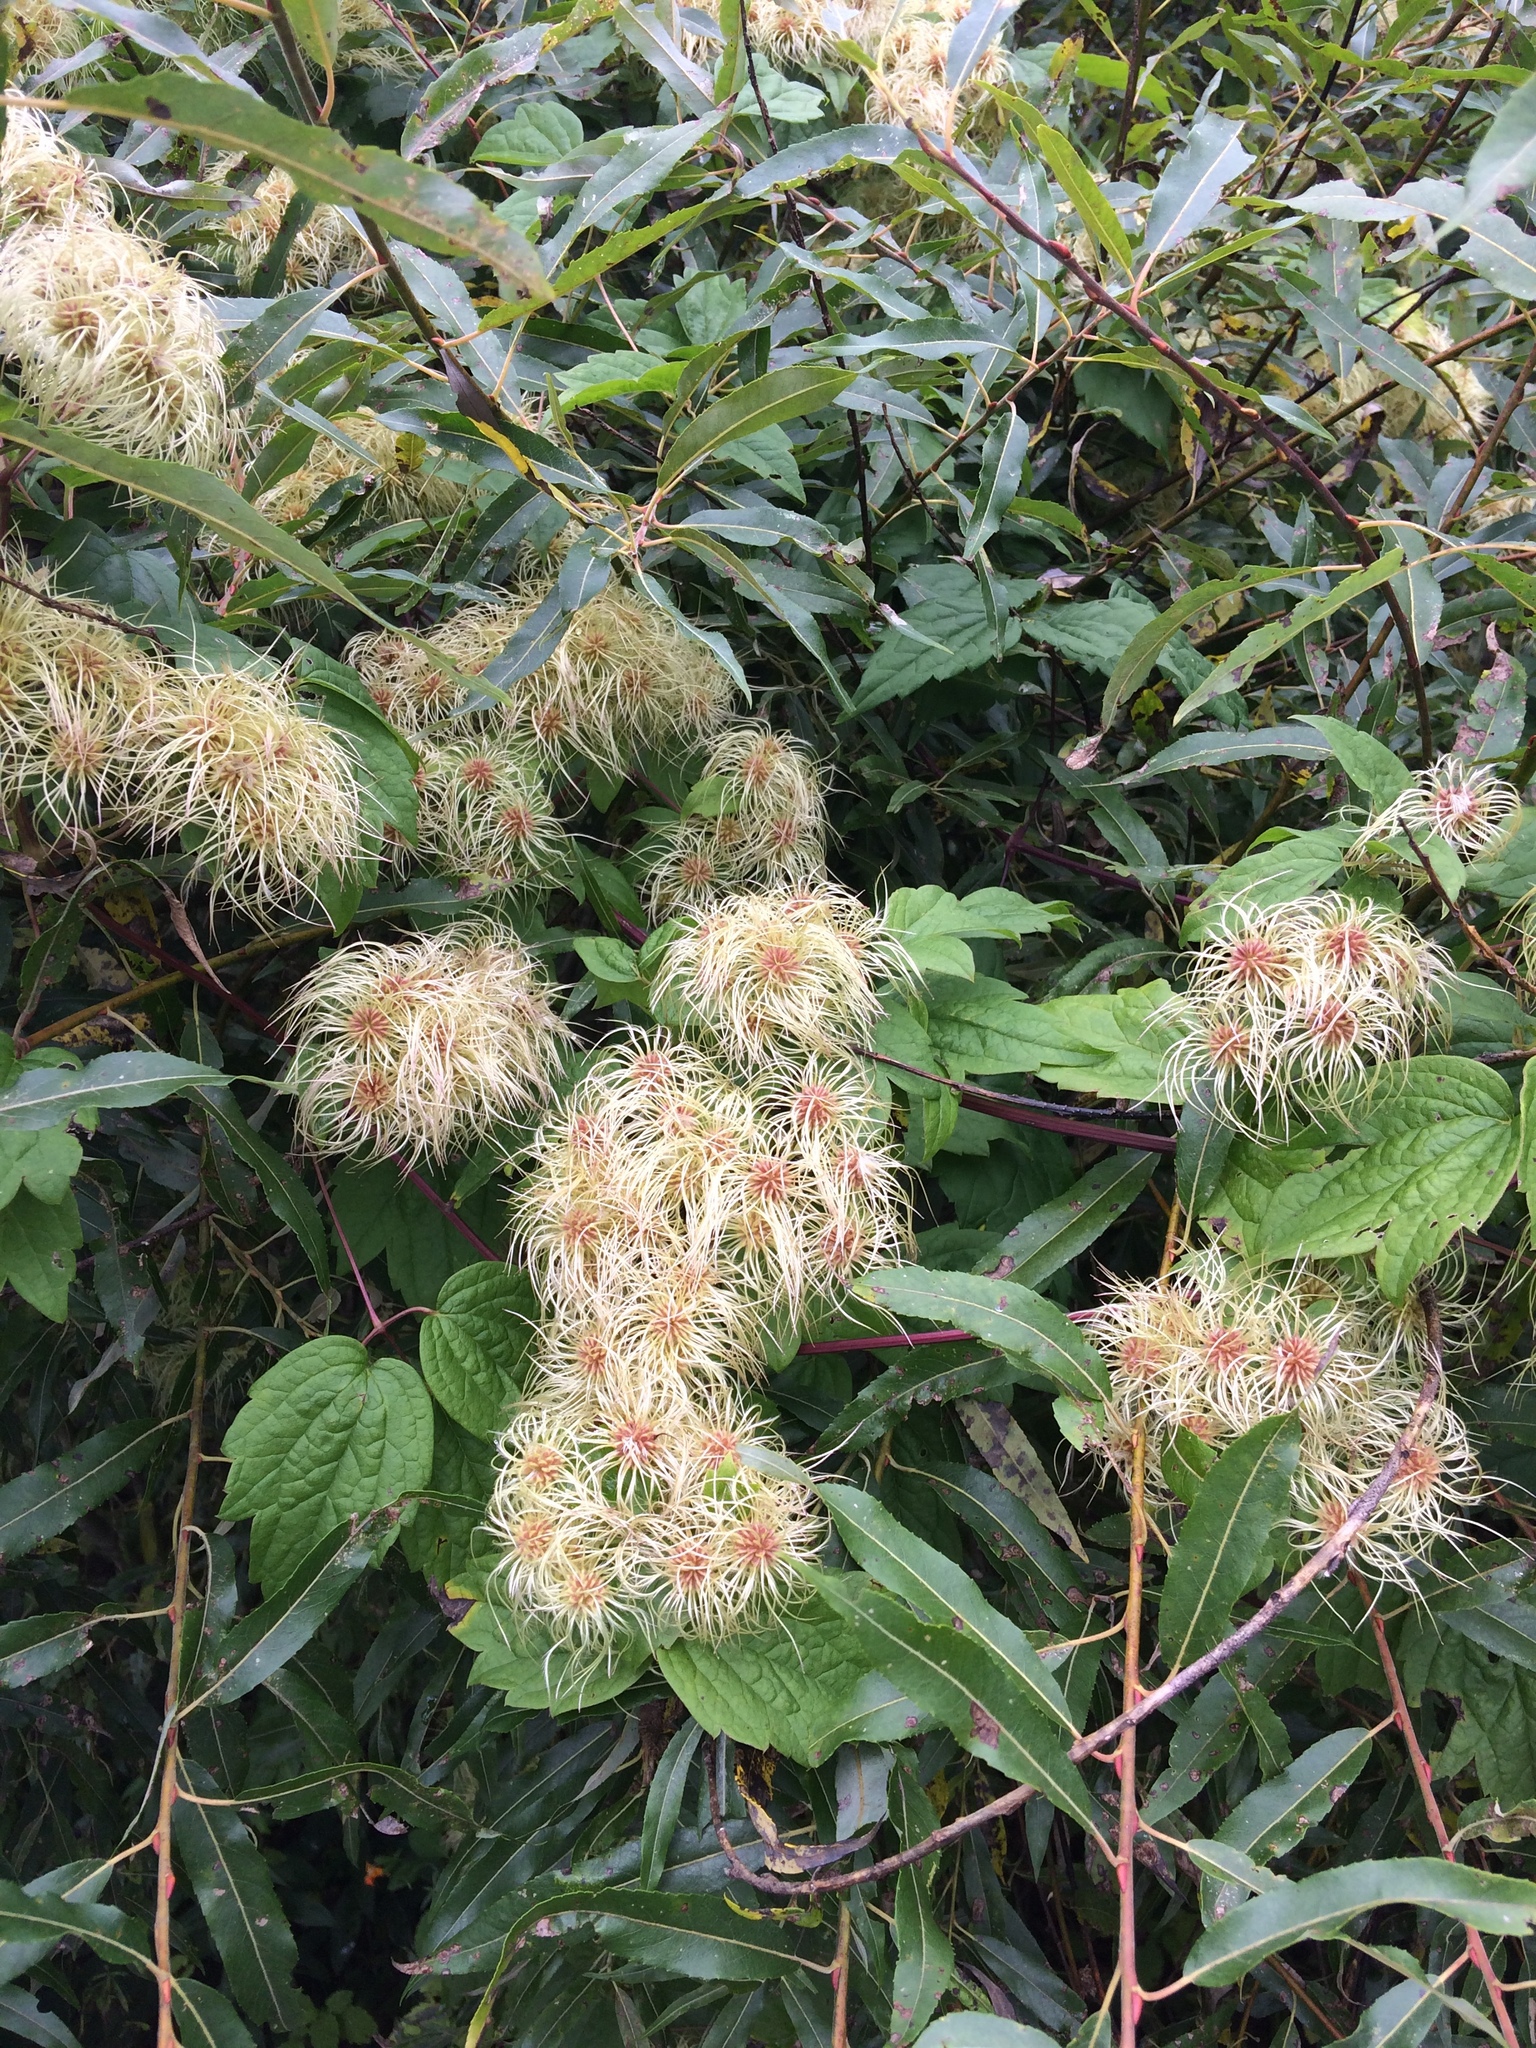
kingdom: Plantae
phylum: Tracheophyta
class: Magnoliopsida
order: Ranunculales
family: Ranunculaceae
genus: Clematis
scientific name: Clematis virginiana
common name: Virgin's-bower
